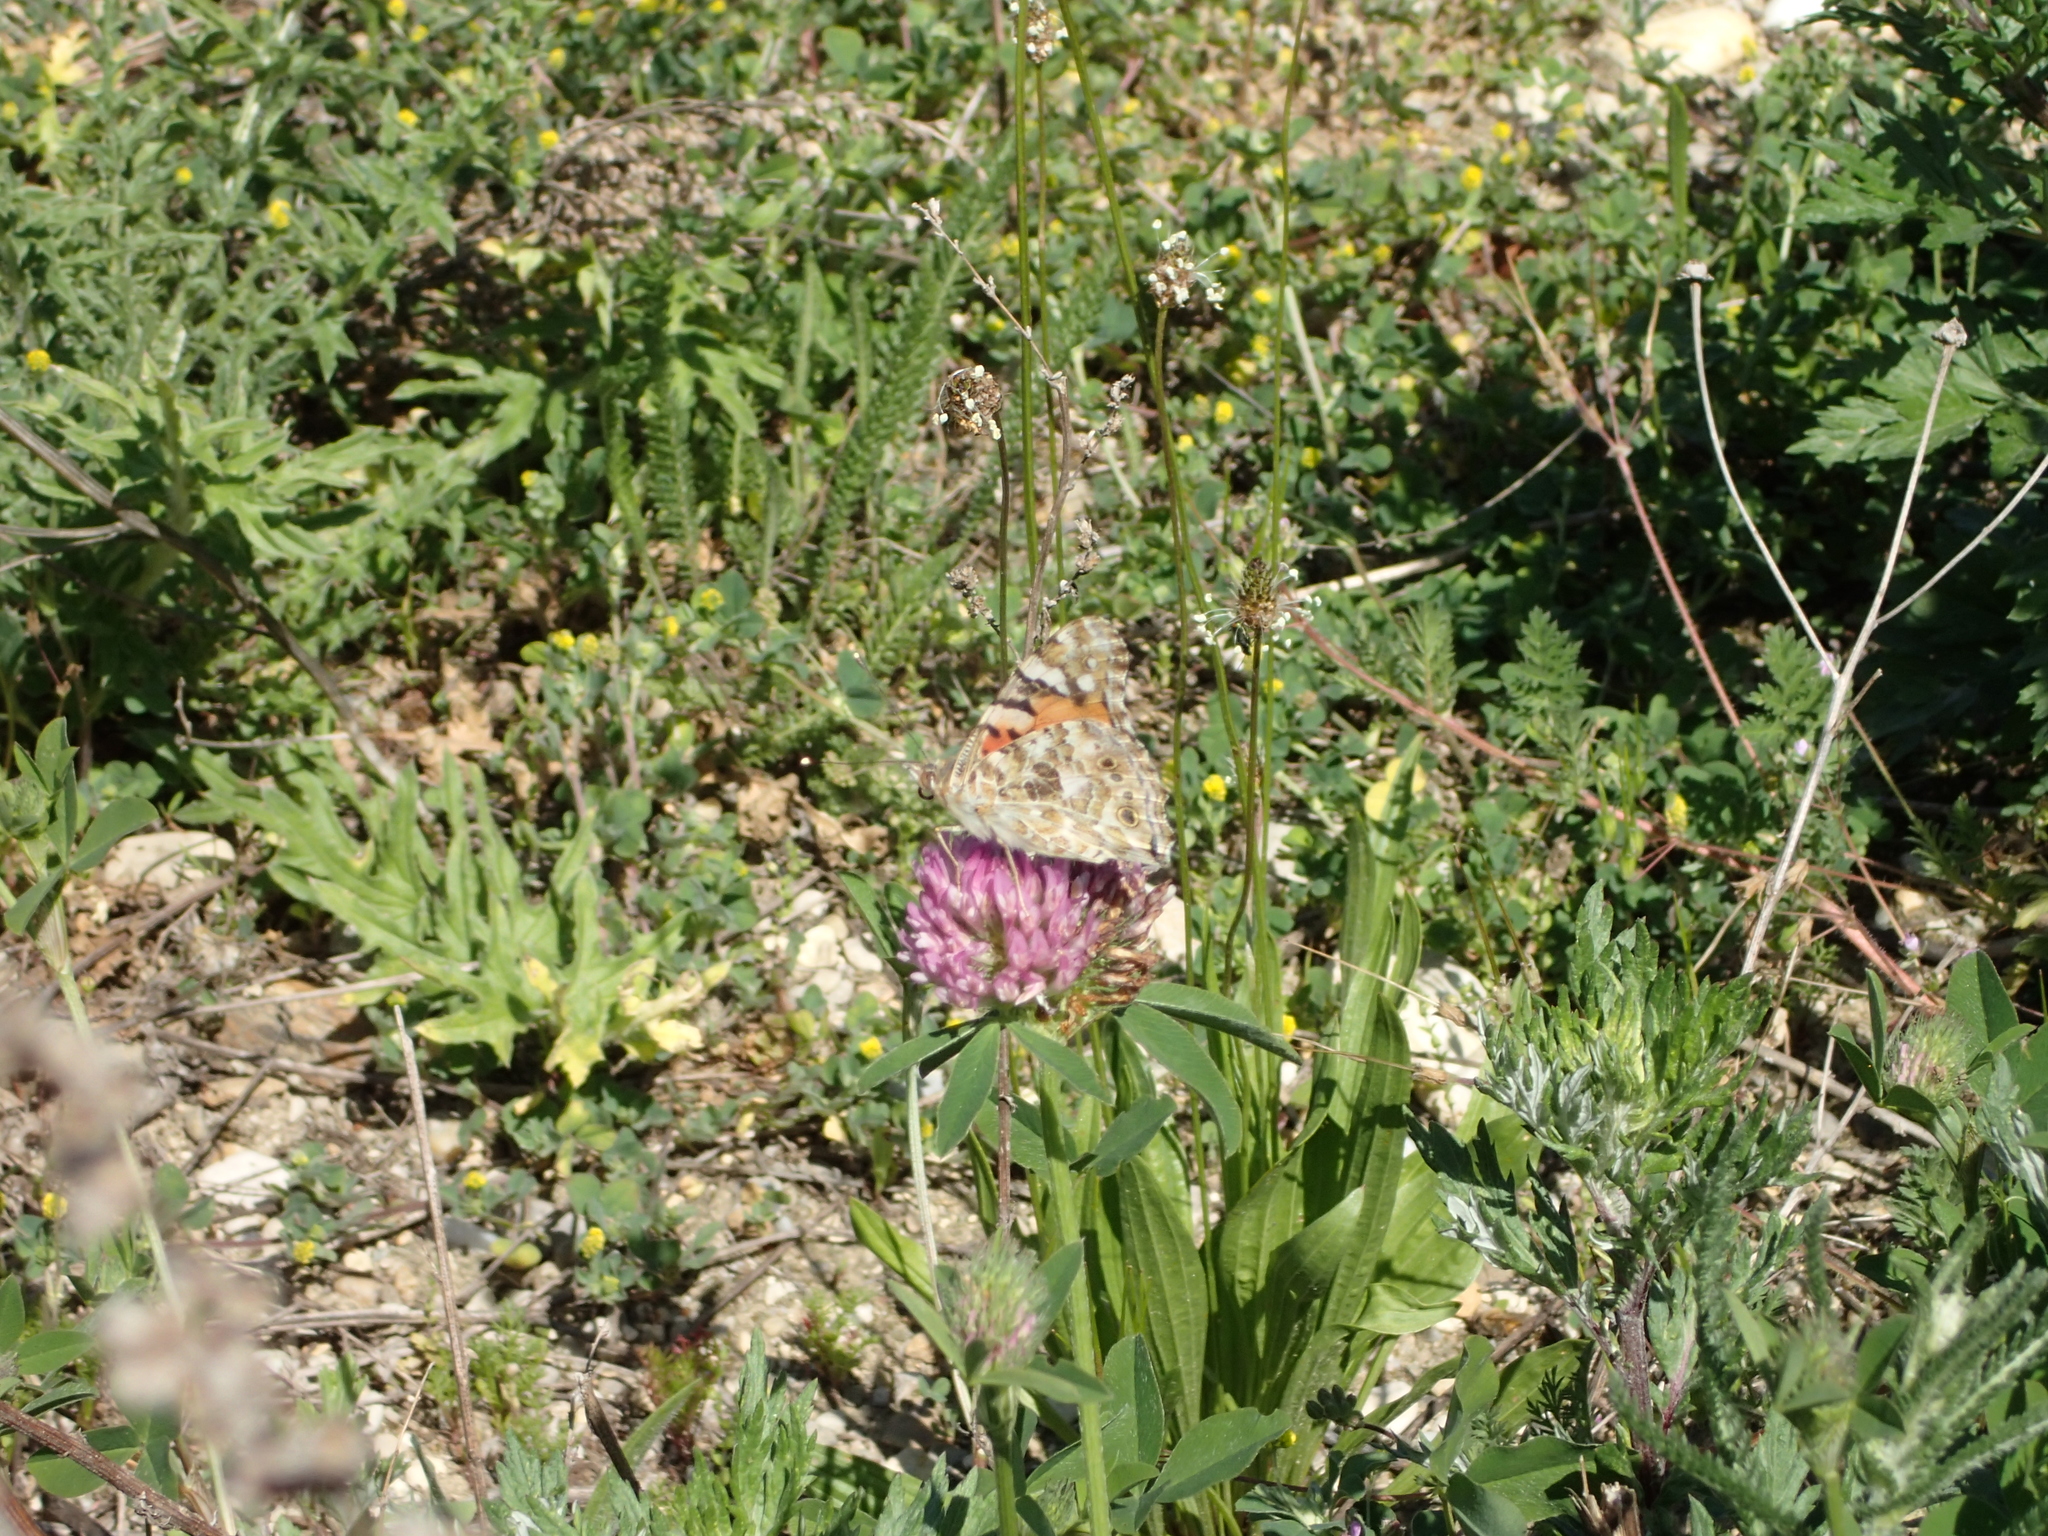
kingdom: Animalia
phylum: Arthropoda
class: Insecta
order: Lepidoptera
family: Nymphalidae
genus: Vanessa
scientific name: Vanessa cardui
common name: Painted lady
